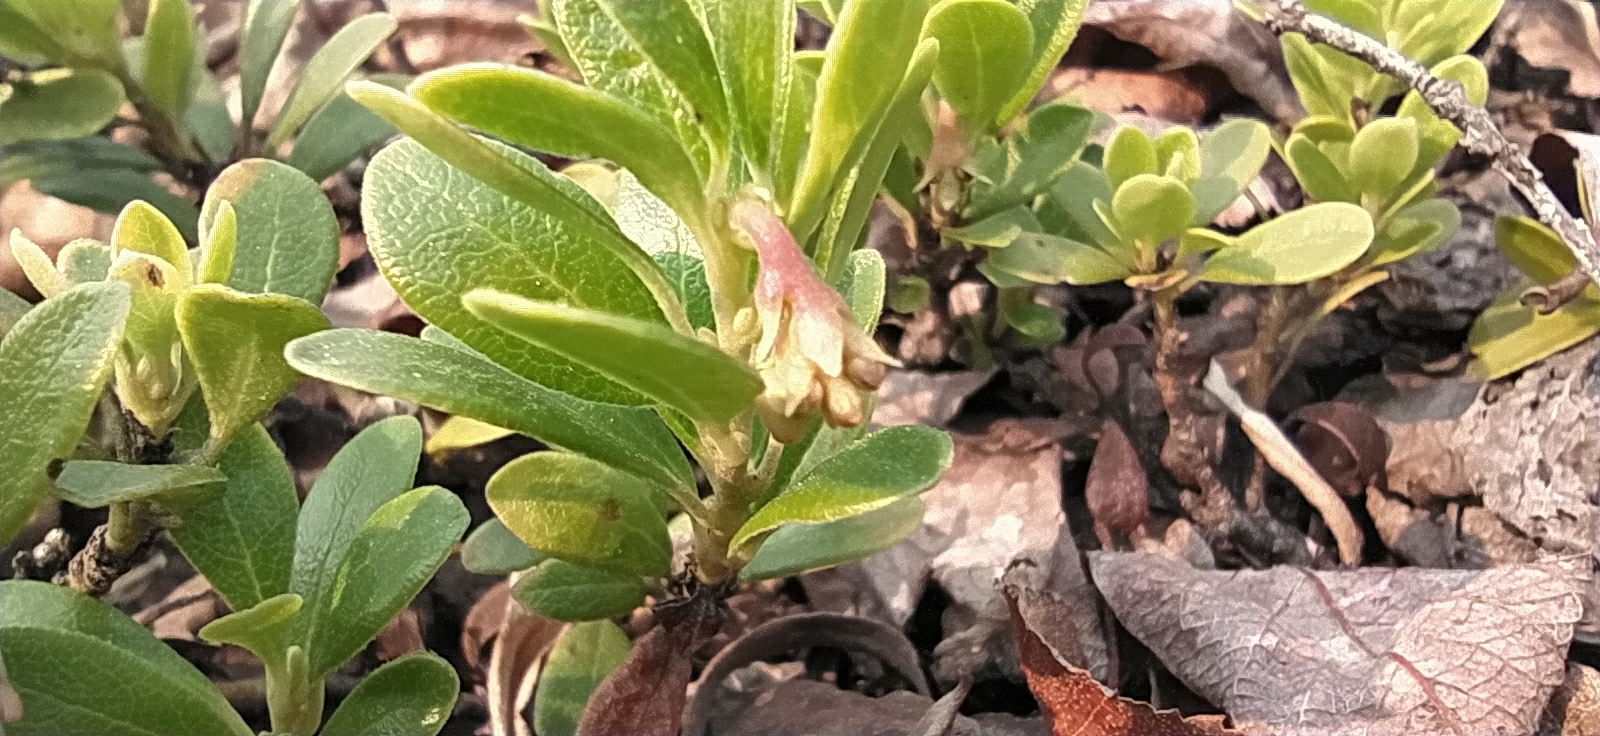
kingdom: Plantae
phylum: Tracheophyta
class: Magnoliopsida
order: Ericales
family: Ericaceae
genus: Arctostaphylos
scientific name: Arctostaphylos uva-ursi
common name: Bearberry
